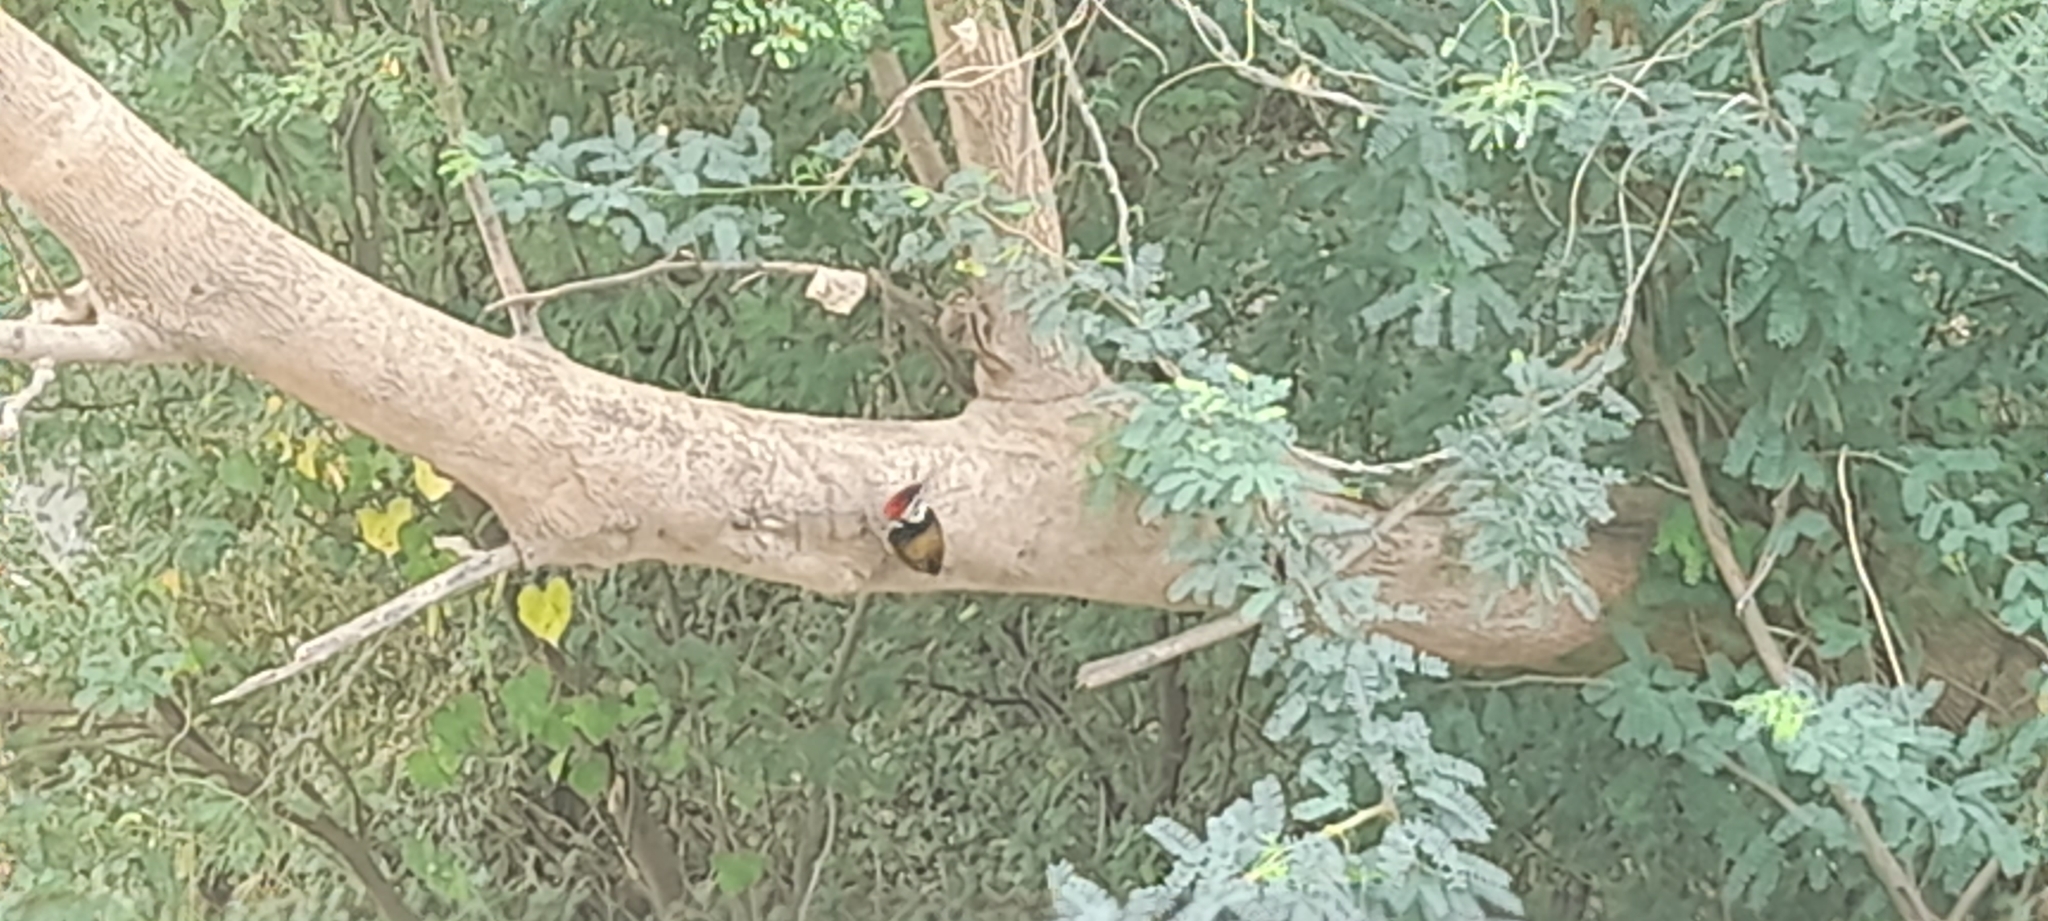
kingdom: Animalia
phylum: Chordata
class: Aves
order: Piciformes
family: Picidae
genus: Dinopium
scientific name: Dinopium benghalense
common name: Black-rumped flameback
